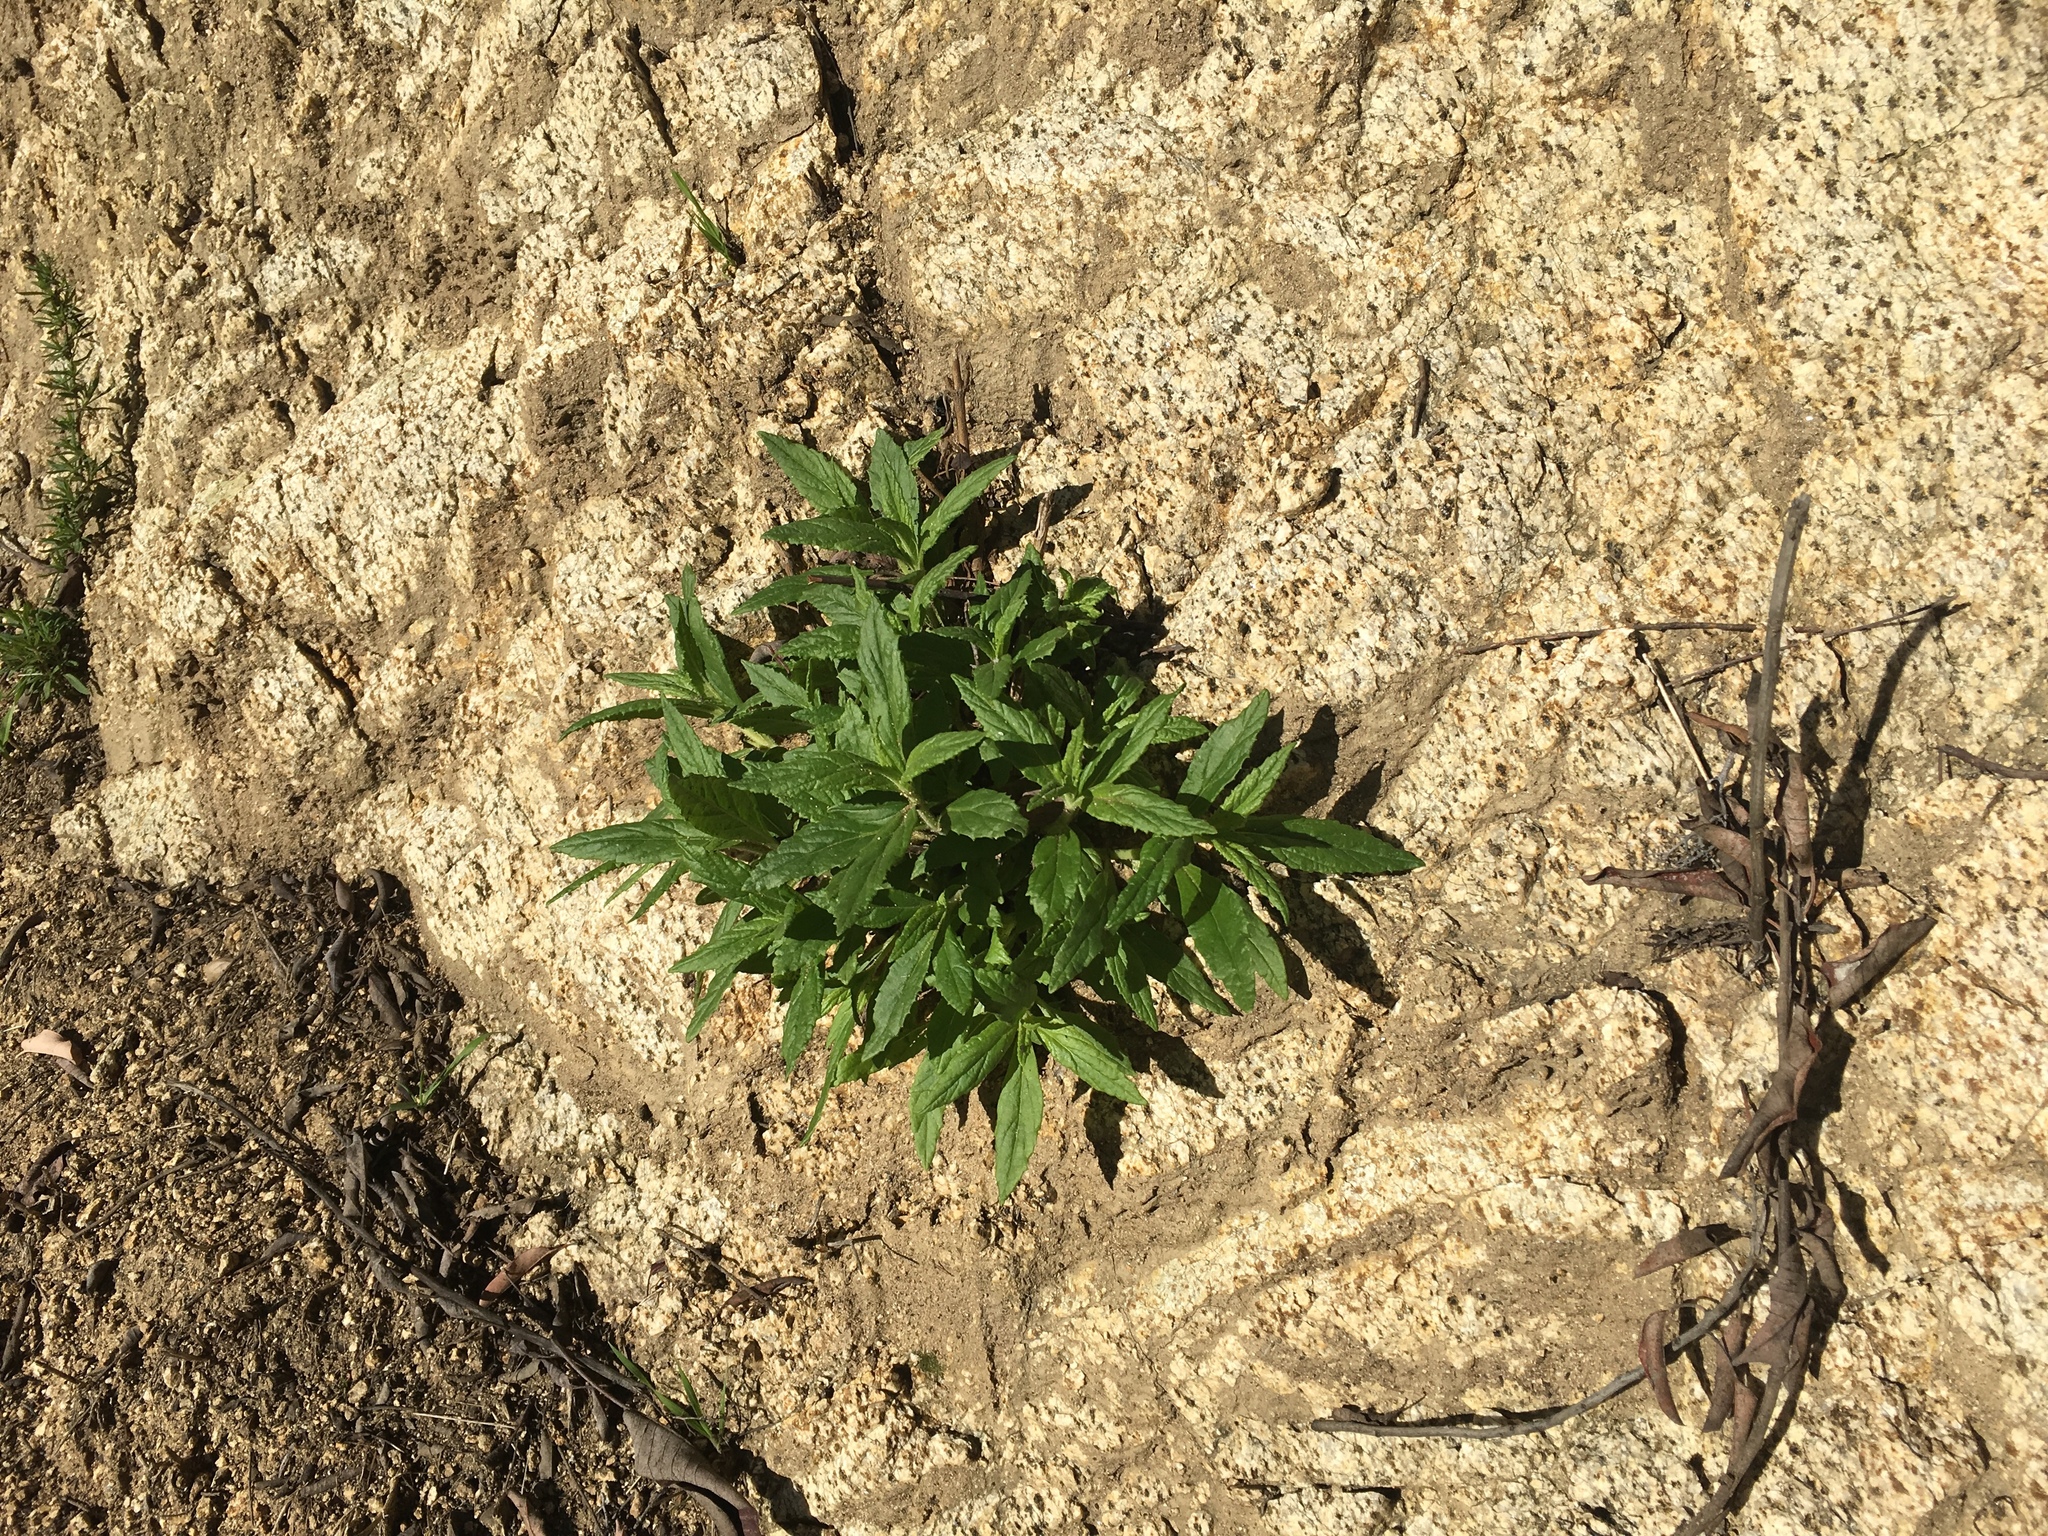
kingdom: Plantae
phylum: Tracheophyta
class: Magnoliopsida
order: Lamiales
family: Phrymaceae
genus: Diplacus
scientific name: Diplacus longiflorus
